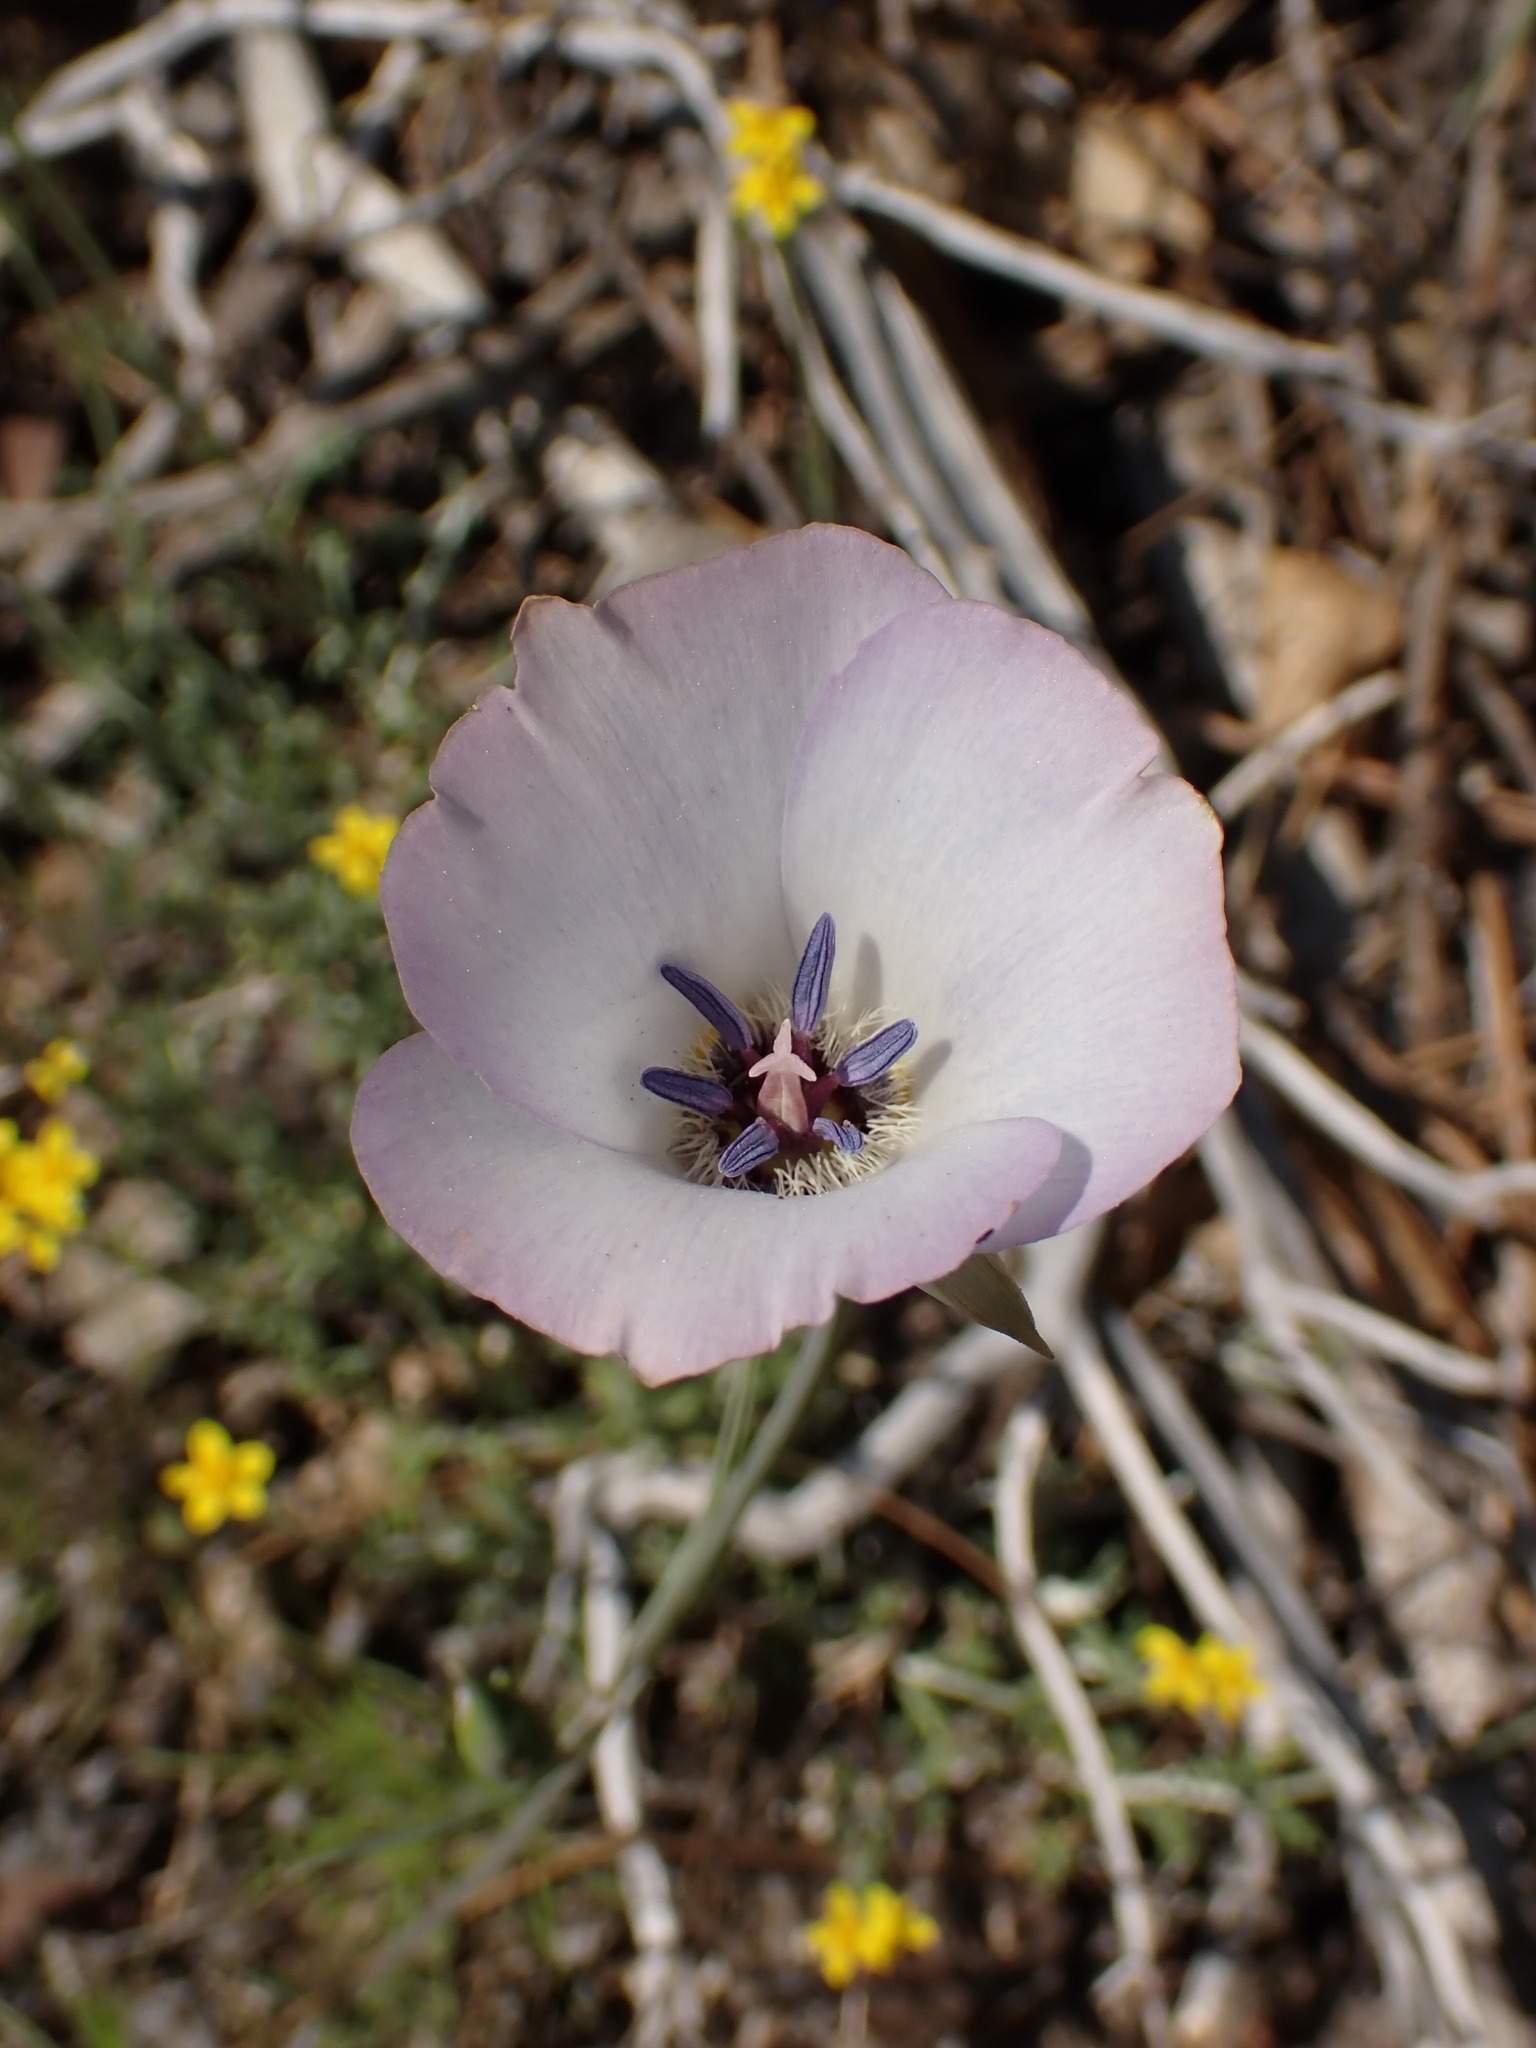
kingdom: Plantae
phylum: Tracheophyta
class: Liliopsida
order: Liliales
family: Liliaceae
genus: Calochortus
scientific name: Calochortus invenustus
